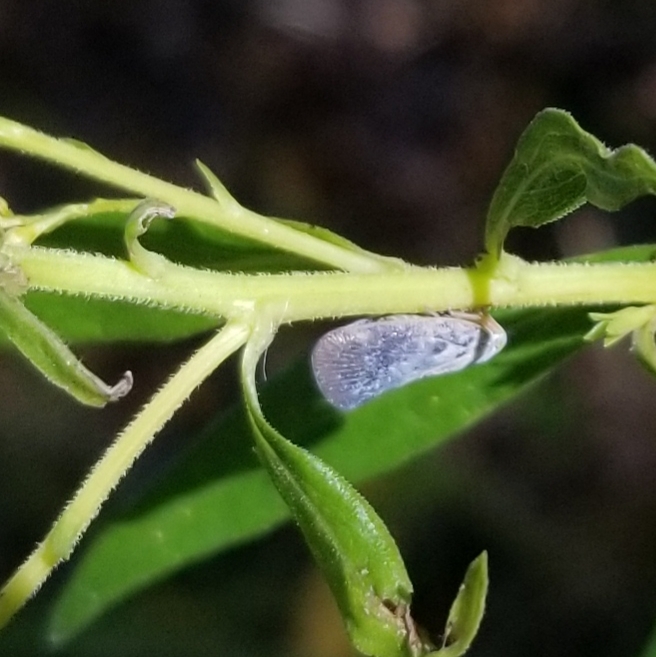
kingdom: Animalia
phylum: Arthropoda
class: Insecta
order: Hemiptera
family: Flatidae
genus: Metcalfa
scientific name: Metcalfa pruinosa
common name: Citrus flatid planthopper
